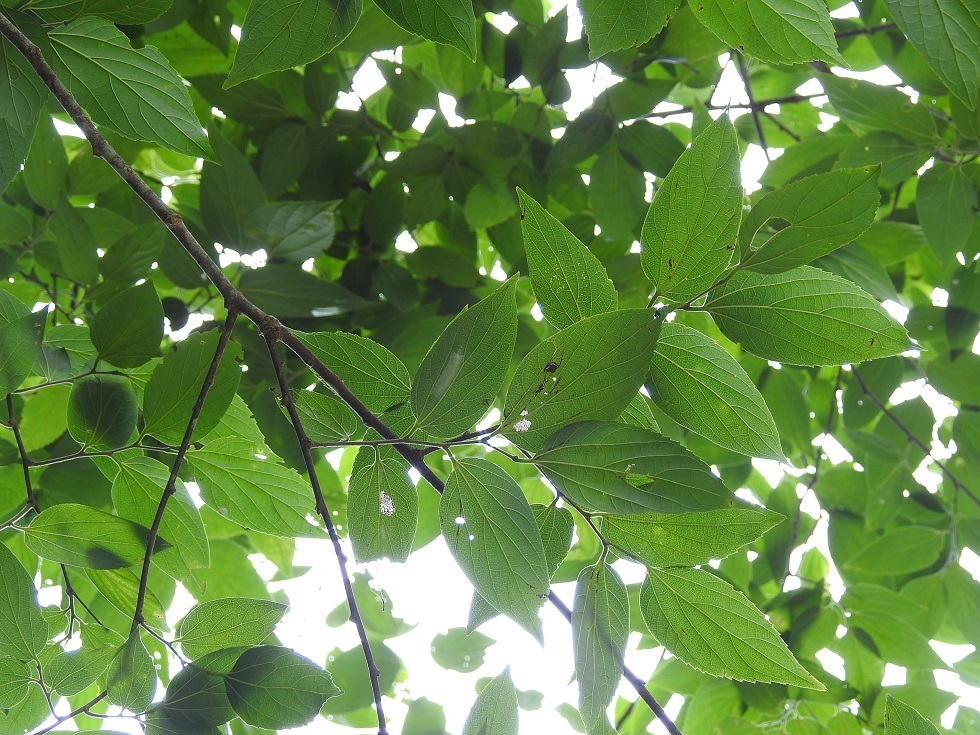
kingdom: Plantae
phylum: Tracheophyta
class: Magnoliopsida
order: Rosales
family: Rhamnaceae
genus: Hovenia
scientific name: Hovenia
